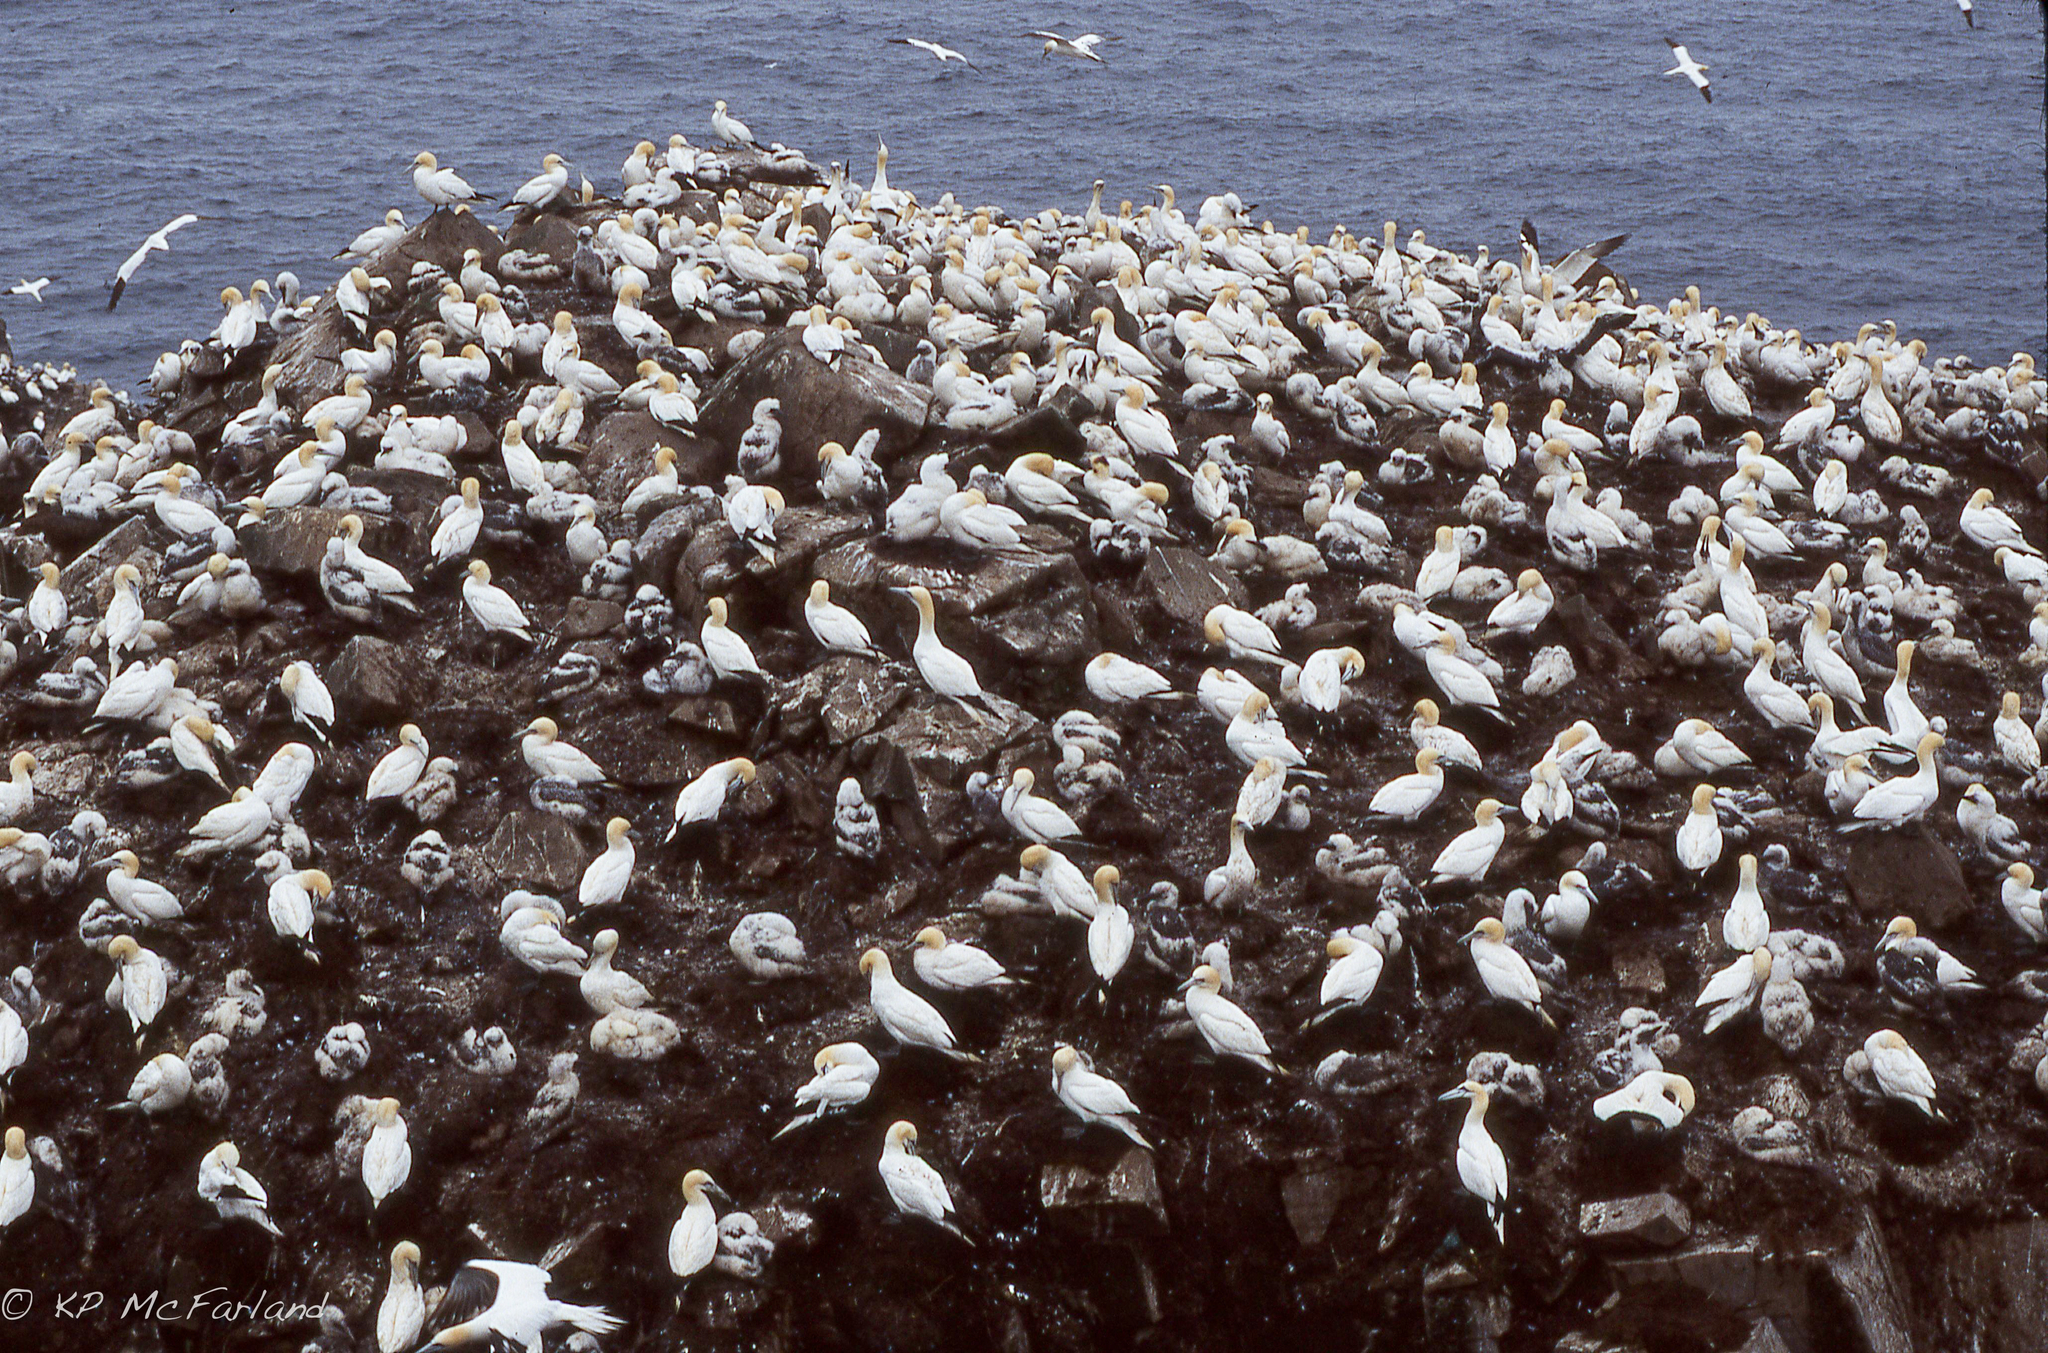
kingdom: Animalia
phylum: Chordata
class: Aves
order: Suliformes
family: Sulidae
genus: Morus
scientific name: Morus bassanus
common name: Northern gannet
